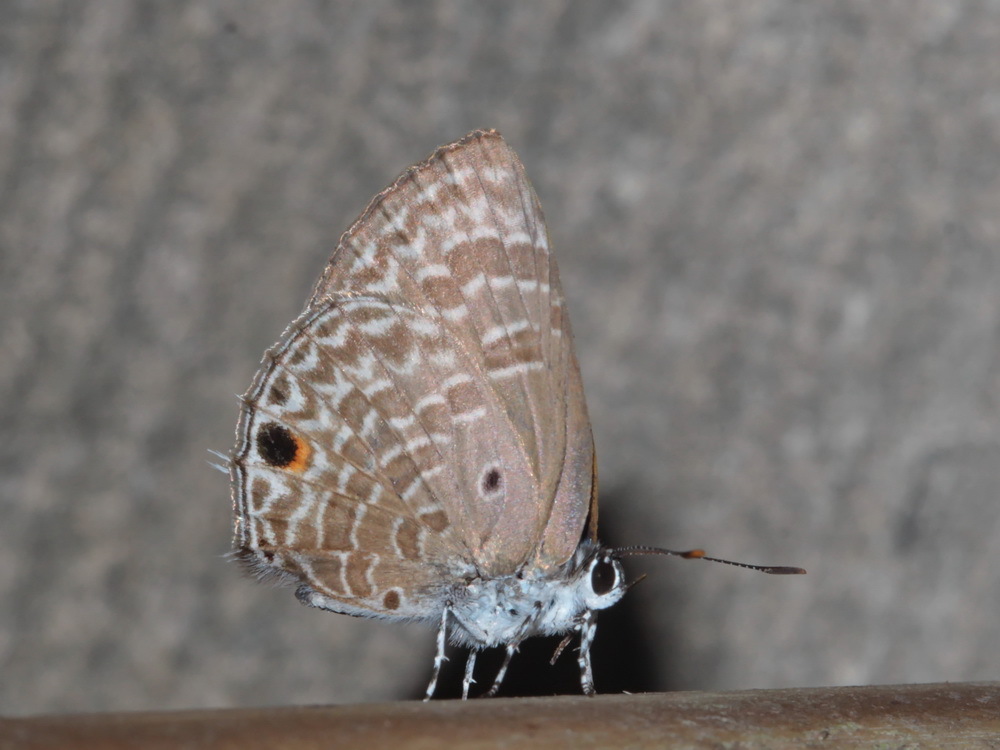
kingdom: Animalia
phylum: Arthropoda
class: Insecta
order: Lepidoptera
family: Lycaenidae
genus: Anthene
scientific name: Anthene lycaenina
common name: Pointed ciliate blue
